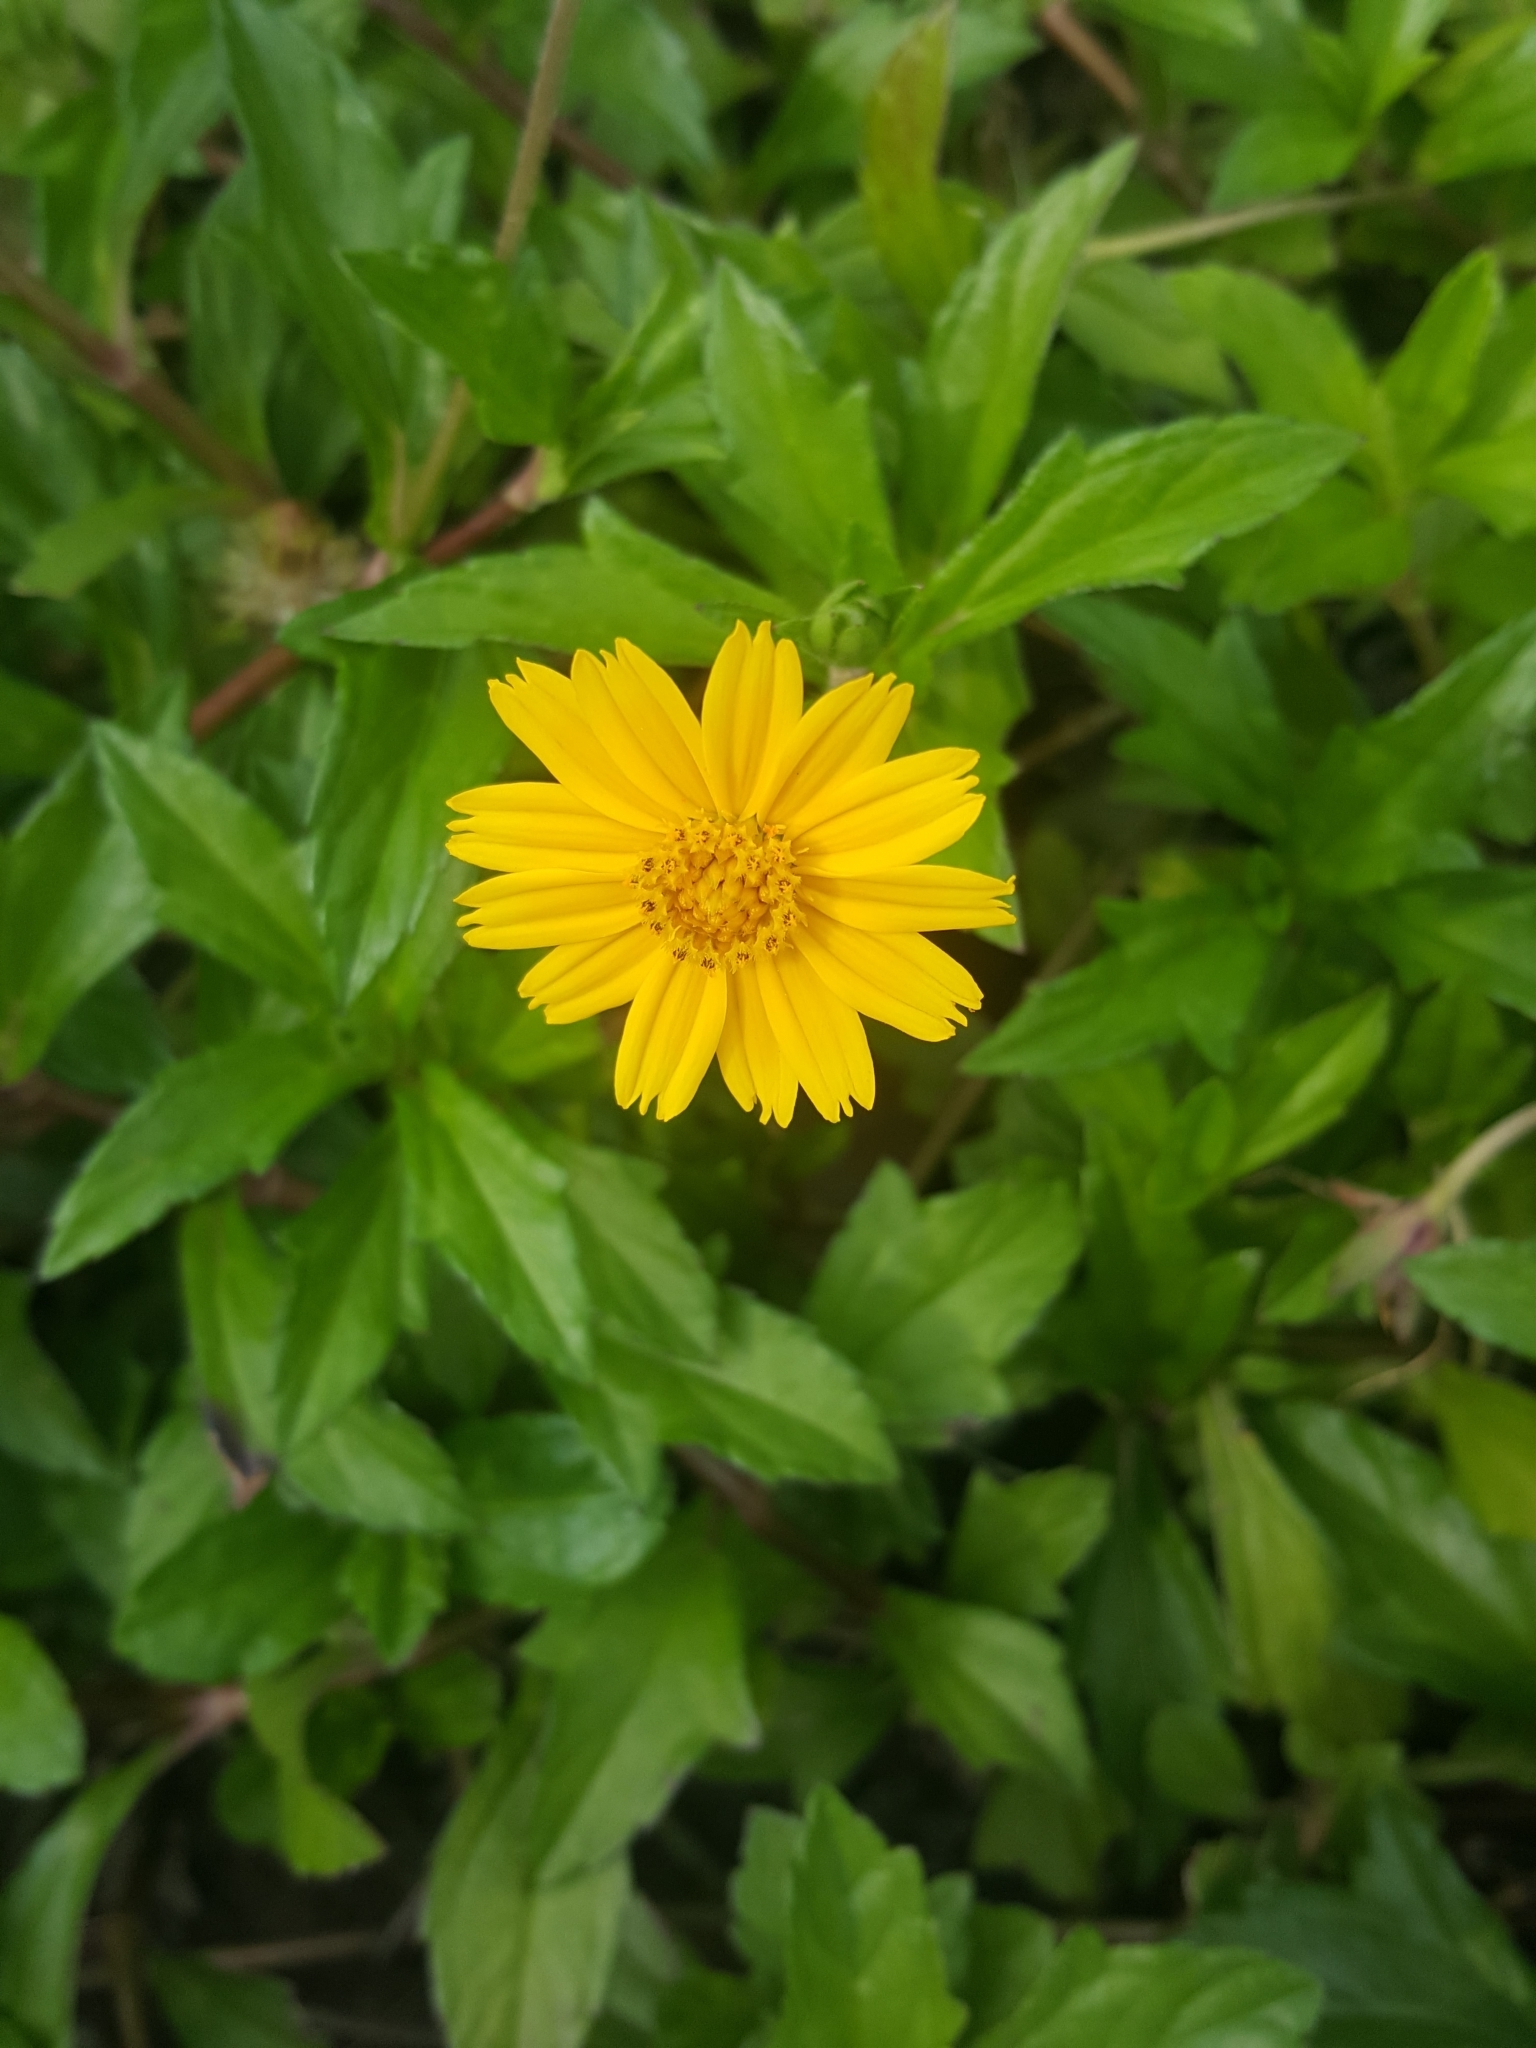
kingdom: Plantae
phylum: Tracheophyta
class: Magnoliopsida
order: Asterales
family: Asteraceae
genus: Sphagneticola
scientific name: Sphagneticola trilobata
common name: Bay biscayne creeping-oxeye
